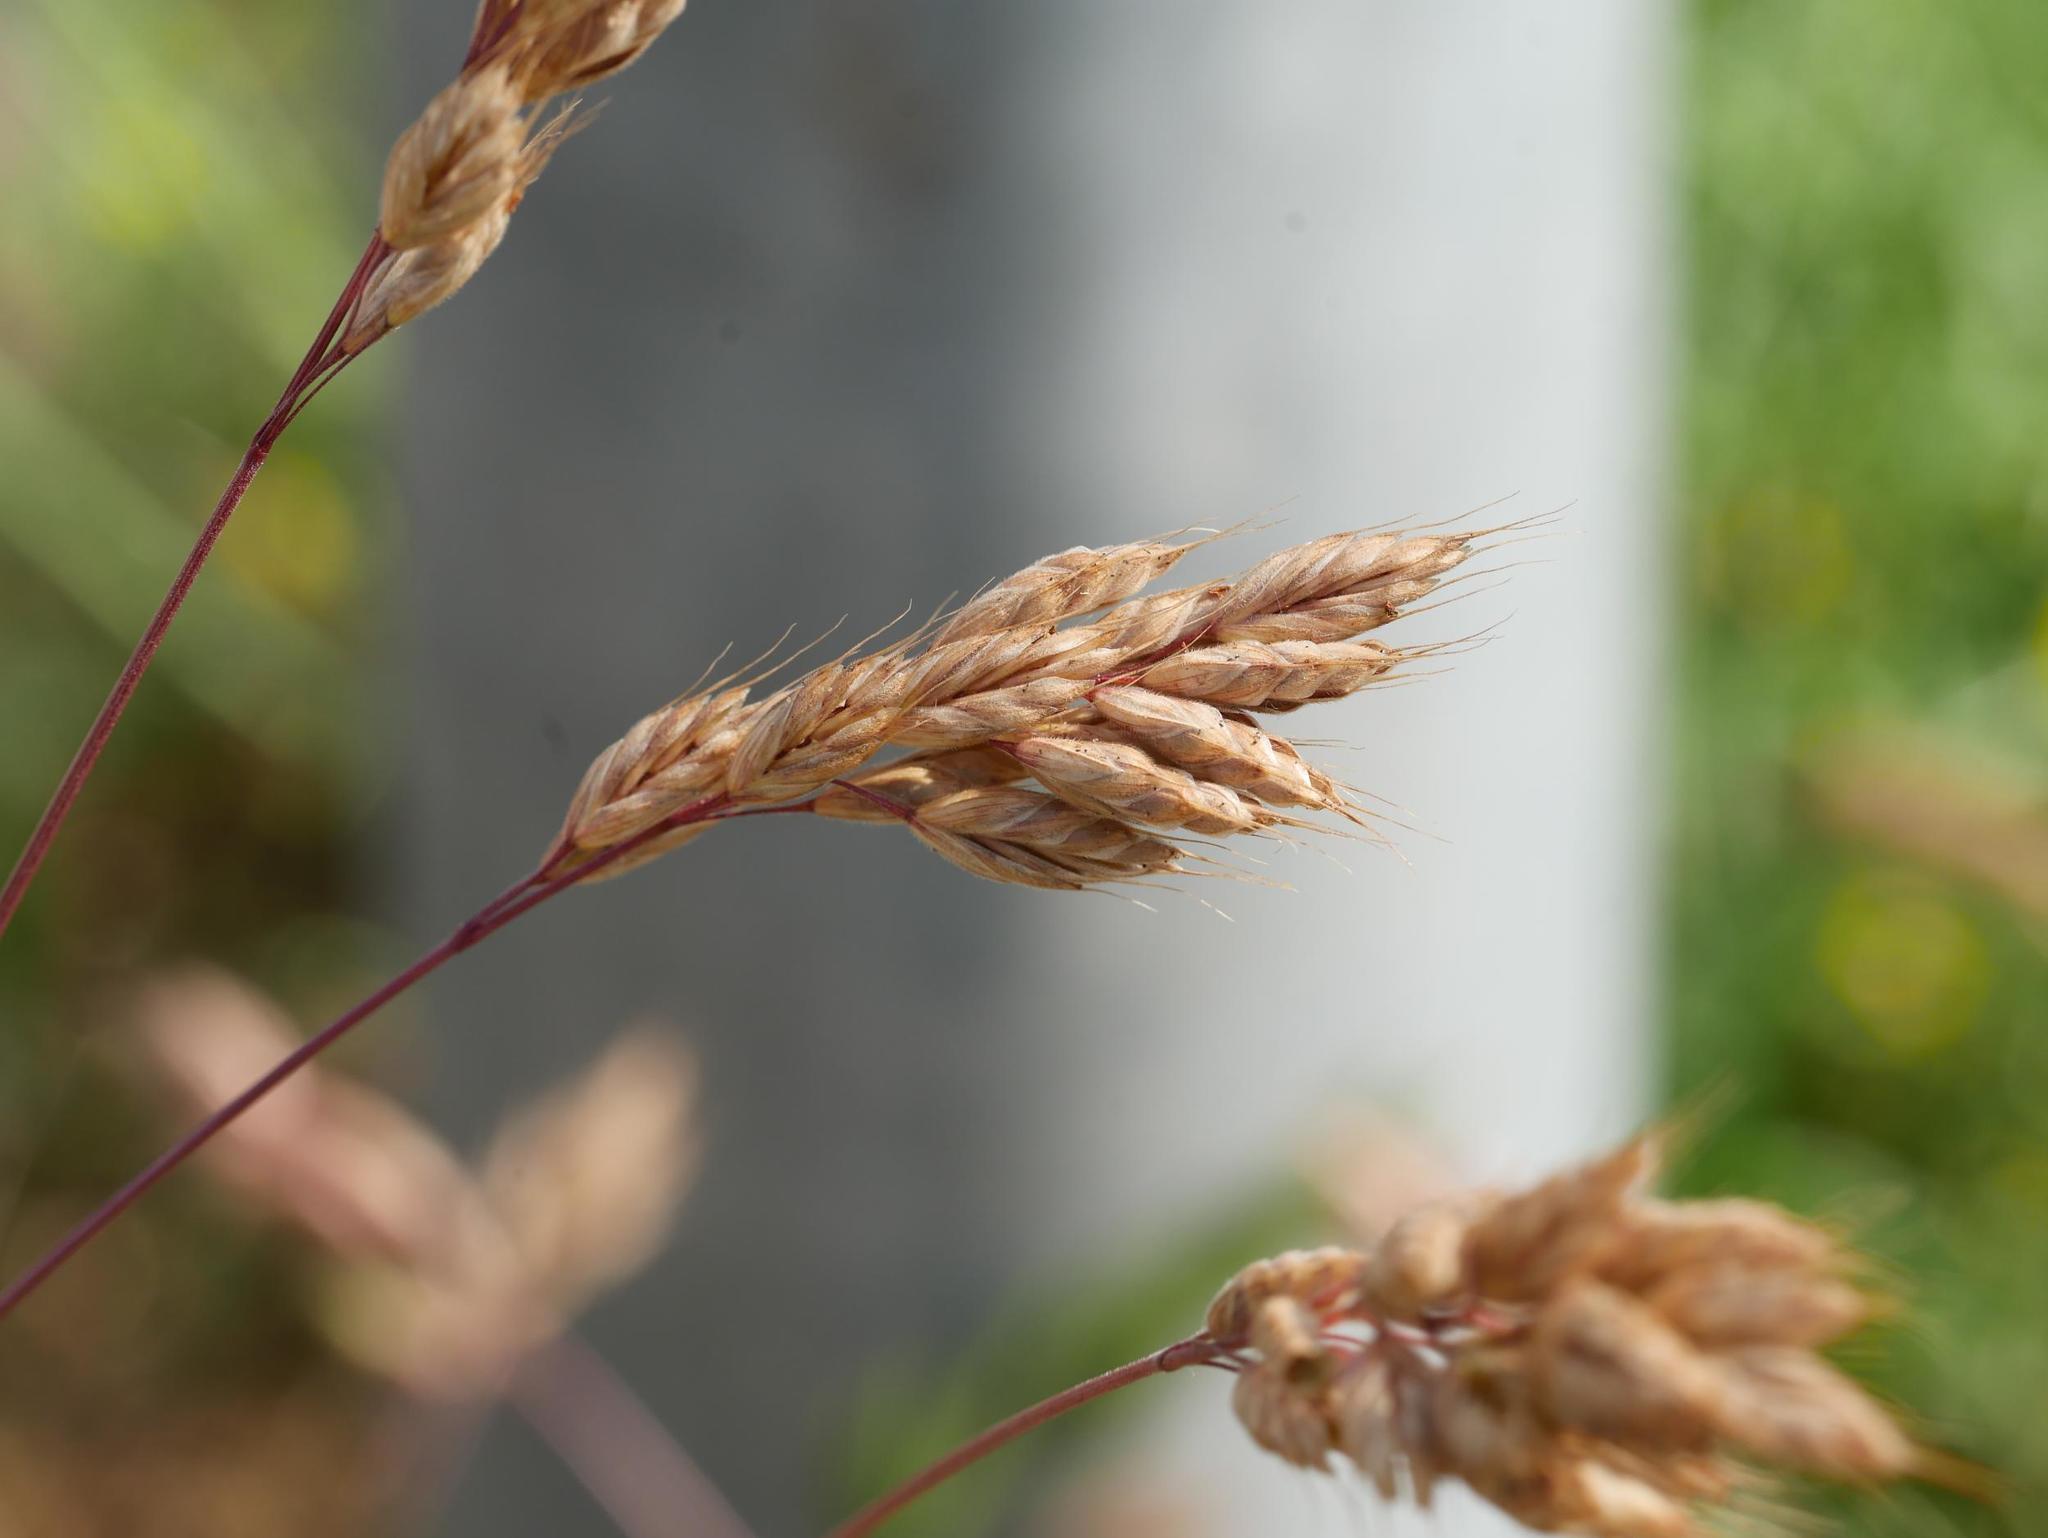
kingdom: Plantae
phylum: Tracheophyta
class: Liliopsida
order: Poales
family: Poaceae
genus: Bromus
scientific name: Bromus hordeaceus
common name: Soft brome
